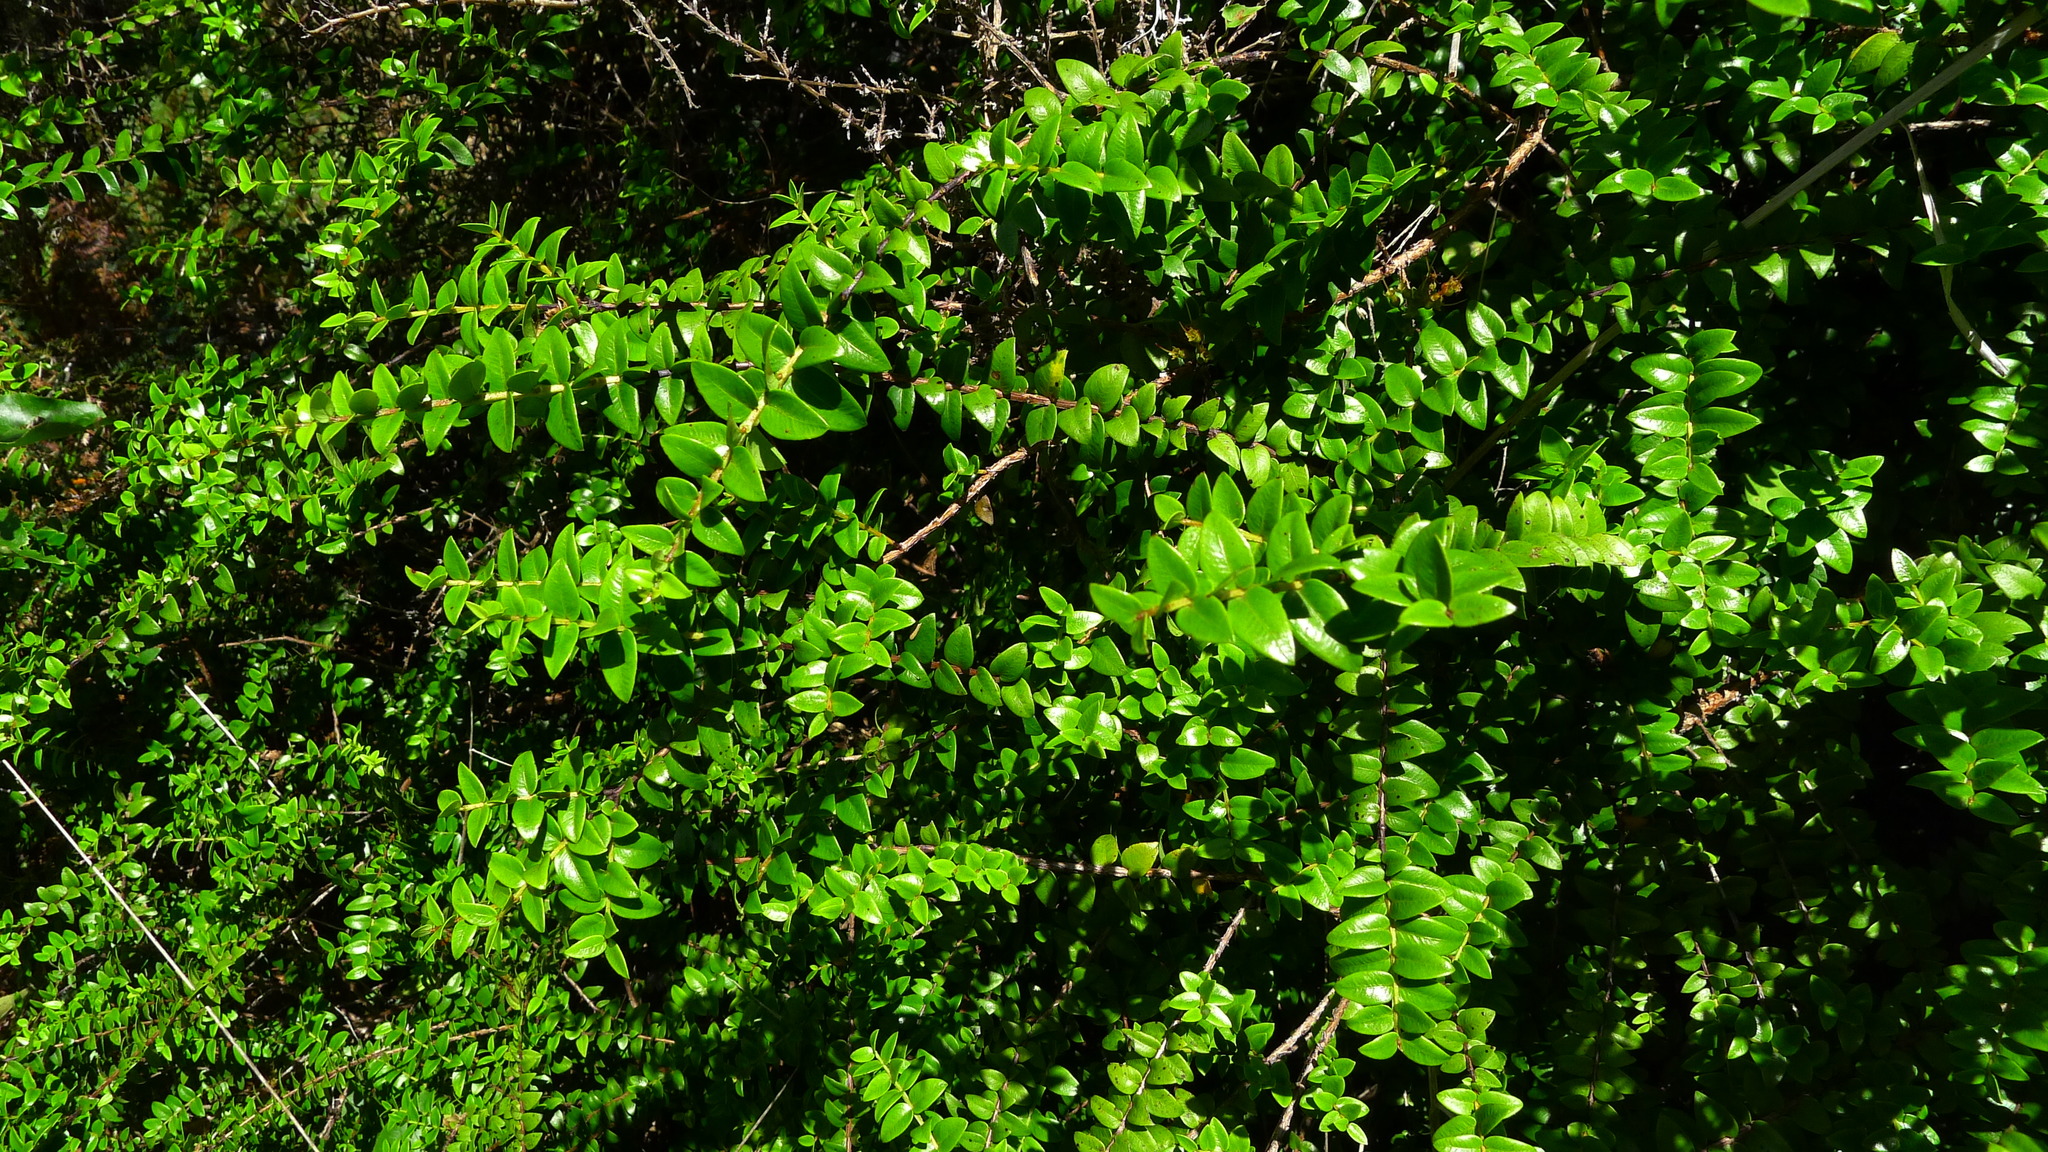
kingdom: Plantae
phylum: Tracheophyta
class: Magnoliopsida
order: Myrtales
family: Myrtaceae
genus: Metrosideros
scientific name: Metrosideros diffusa
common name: Small ratavine
